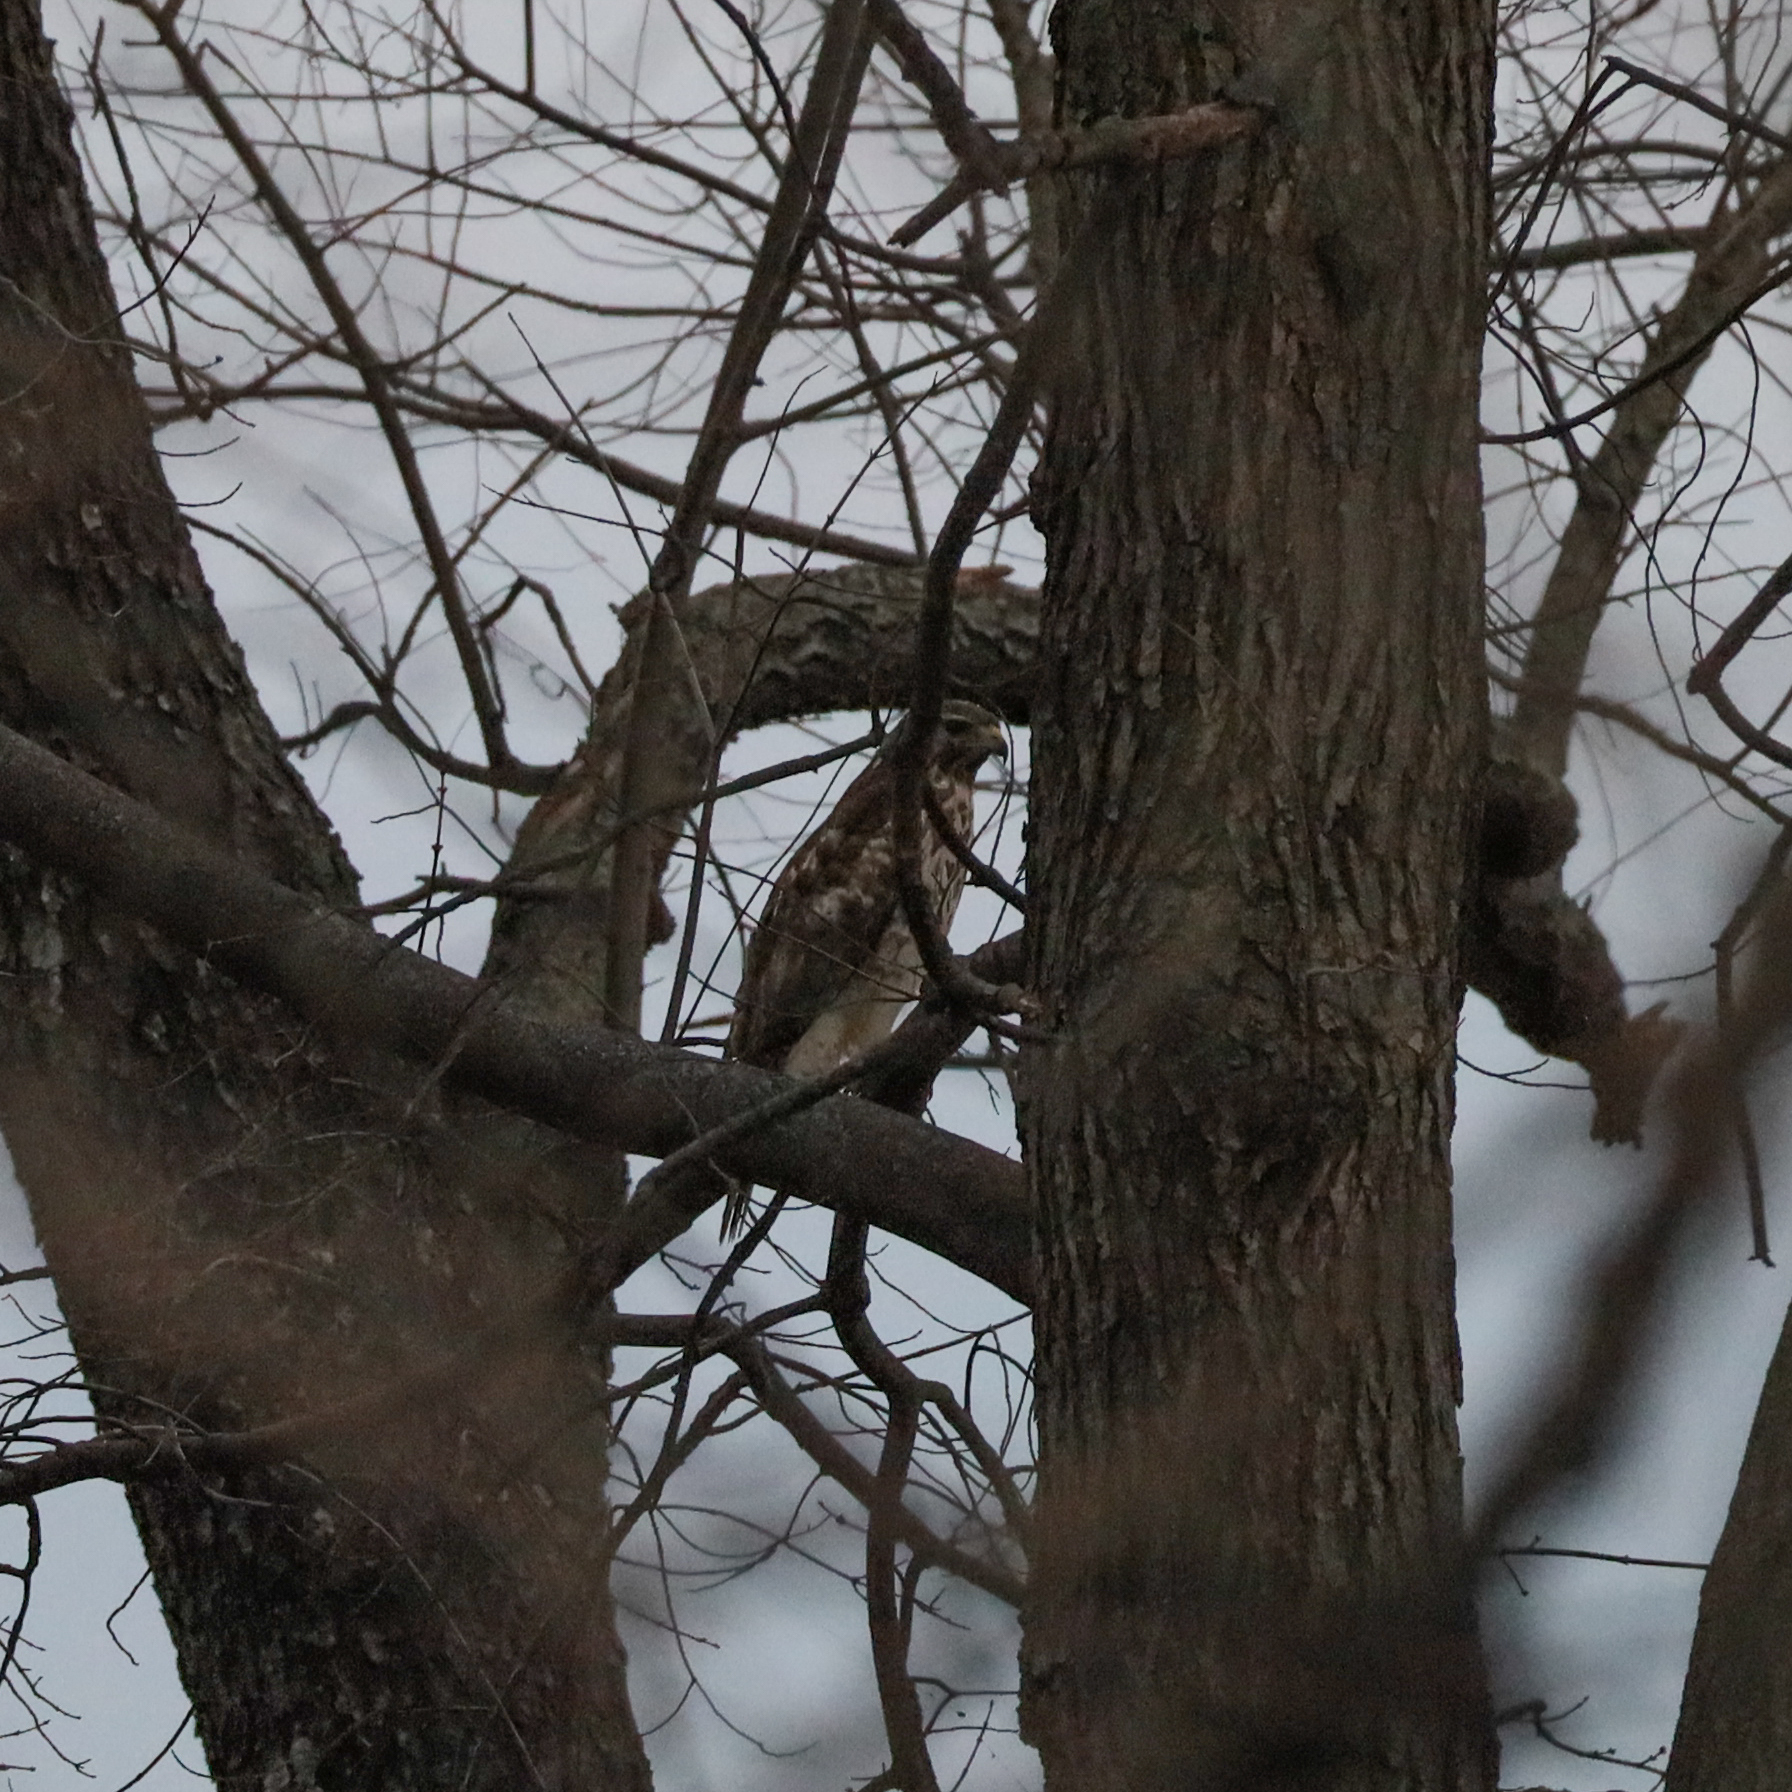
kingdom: Animalia
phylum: Chordata
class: Aves
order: Accipitriformes
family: Accipitridae
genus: Buteo
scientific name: Buteo lineatus
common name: Red-shouldered hawk
